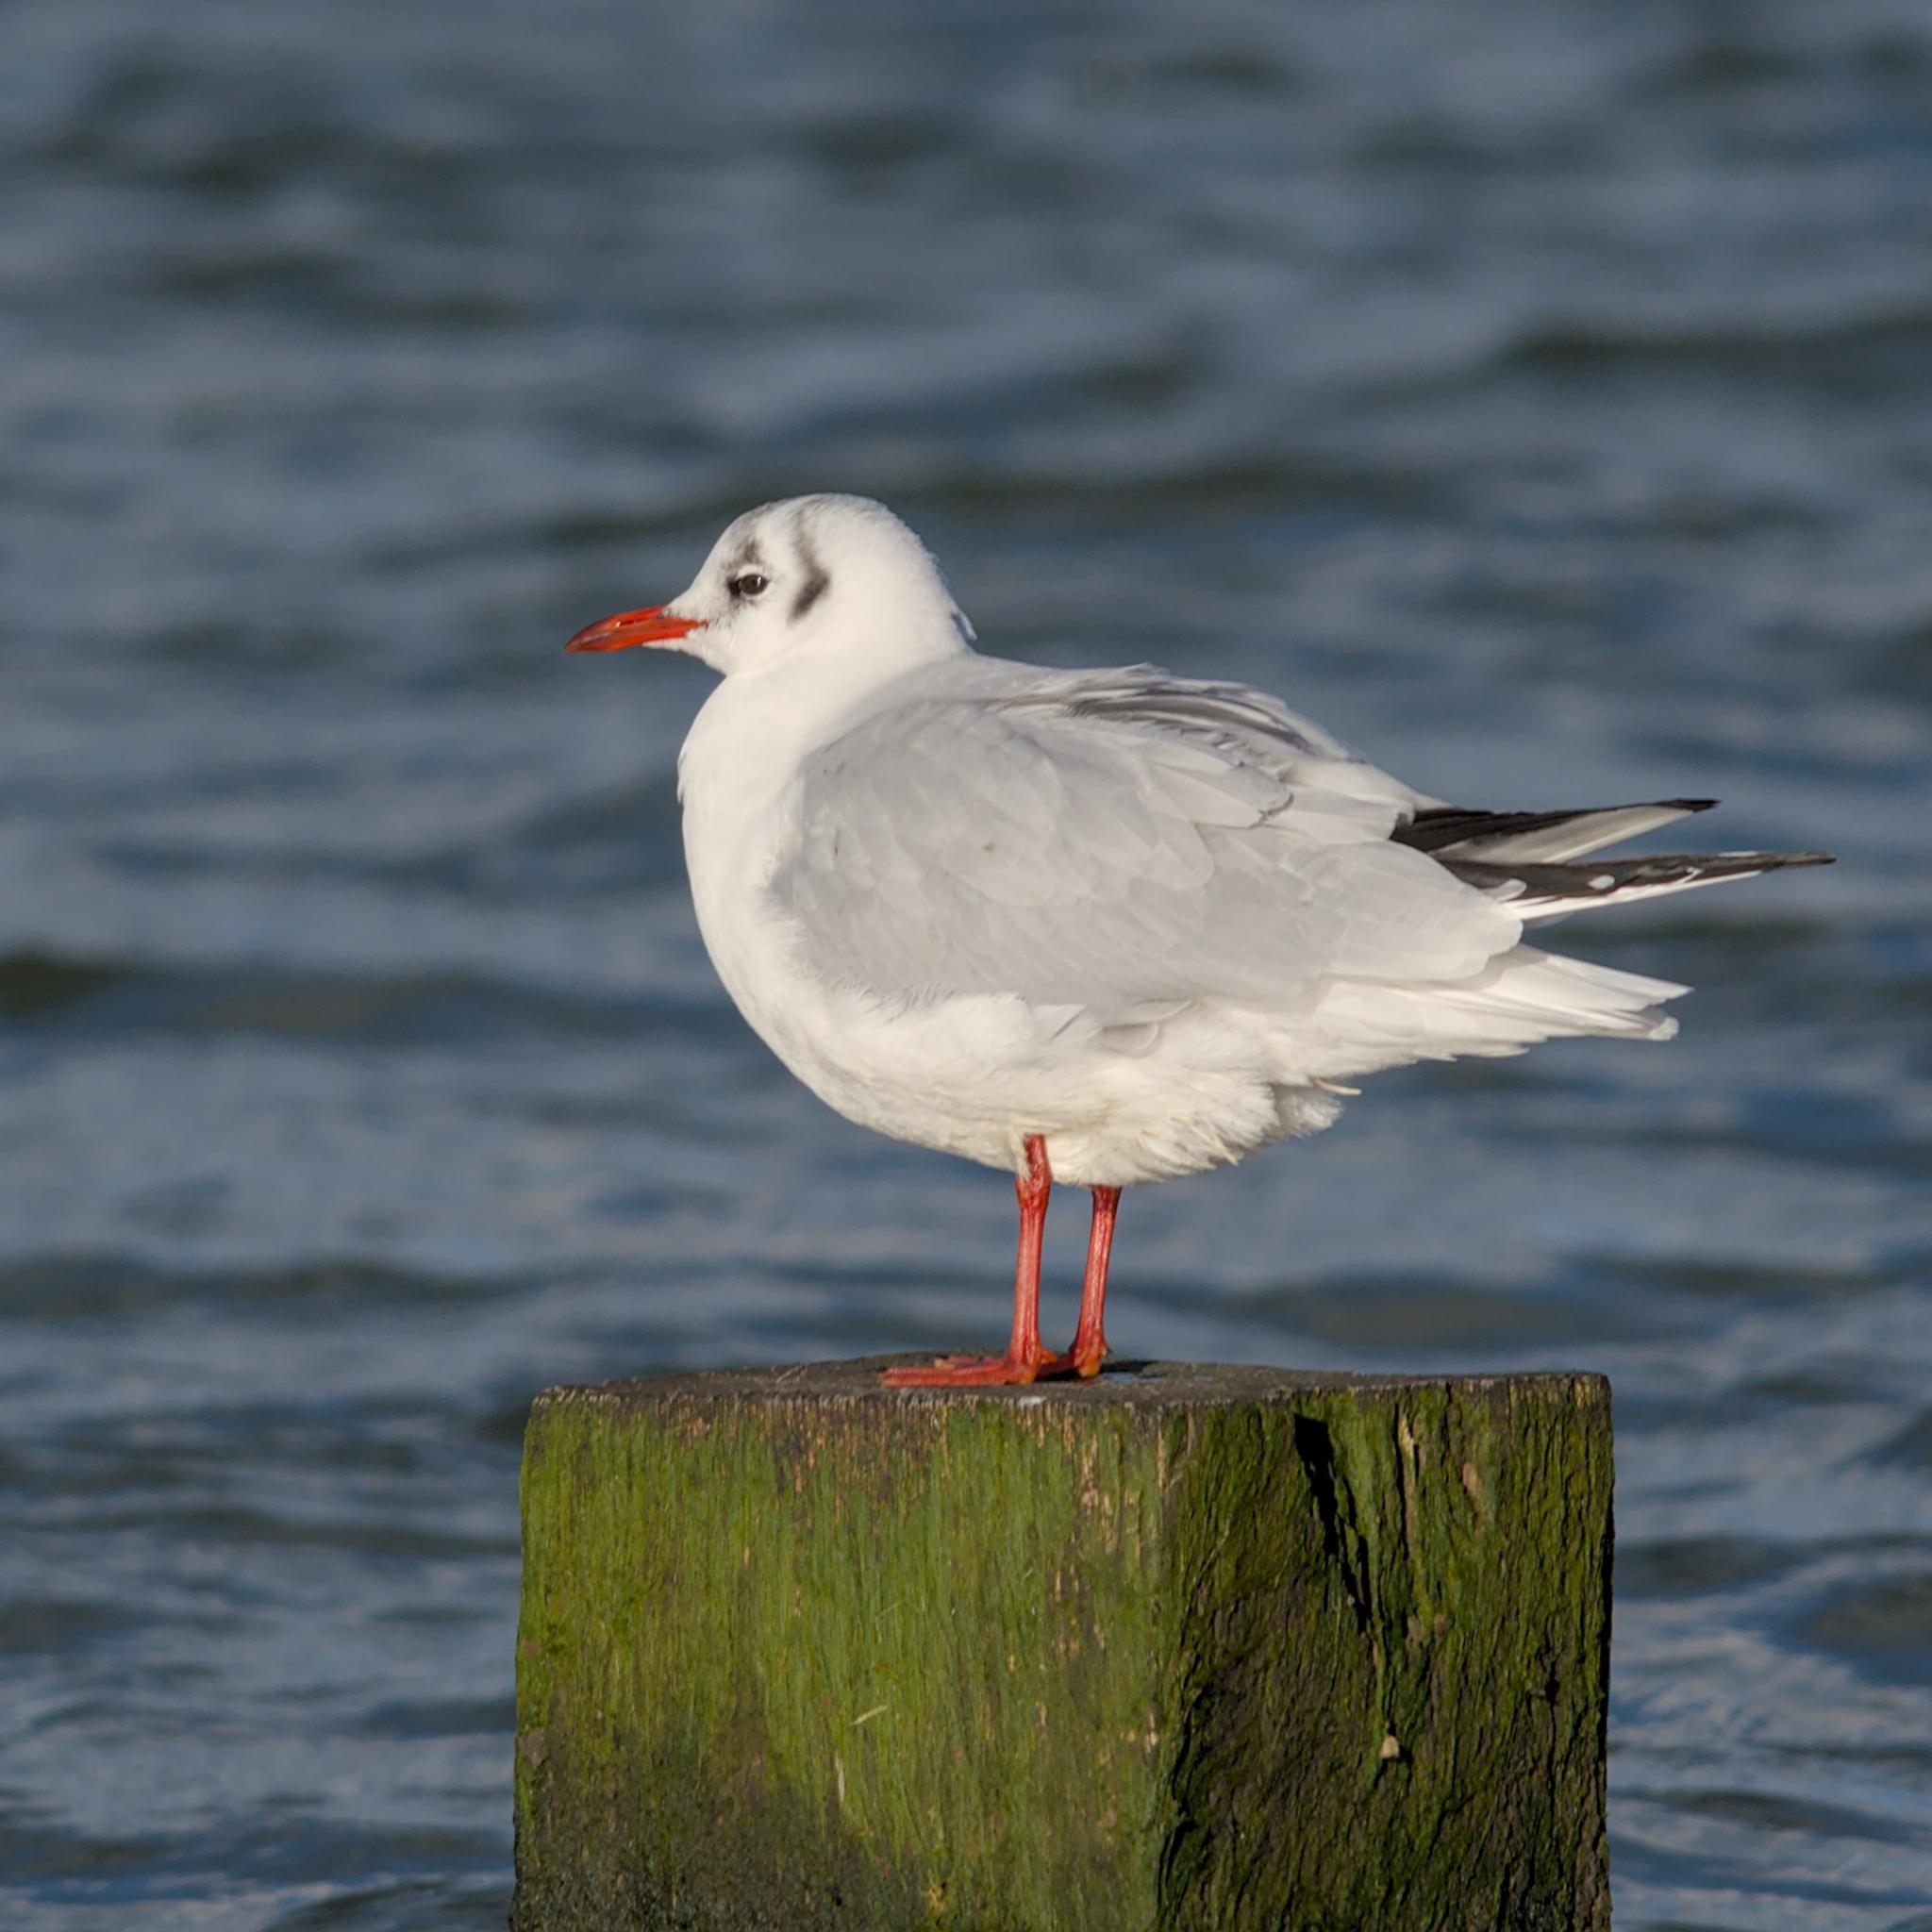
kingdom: Animalia
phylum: Chordata
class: Aves
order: Charadriiformes
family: Laridae
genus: Chroicocephalus
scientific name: Chroicocephalus ridibundus
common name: Black-headed gull
